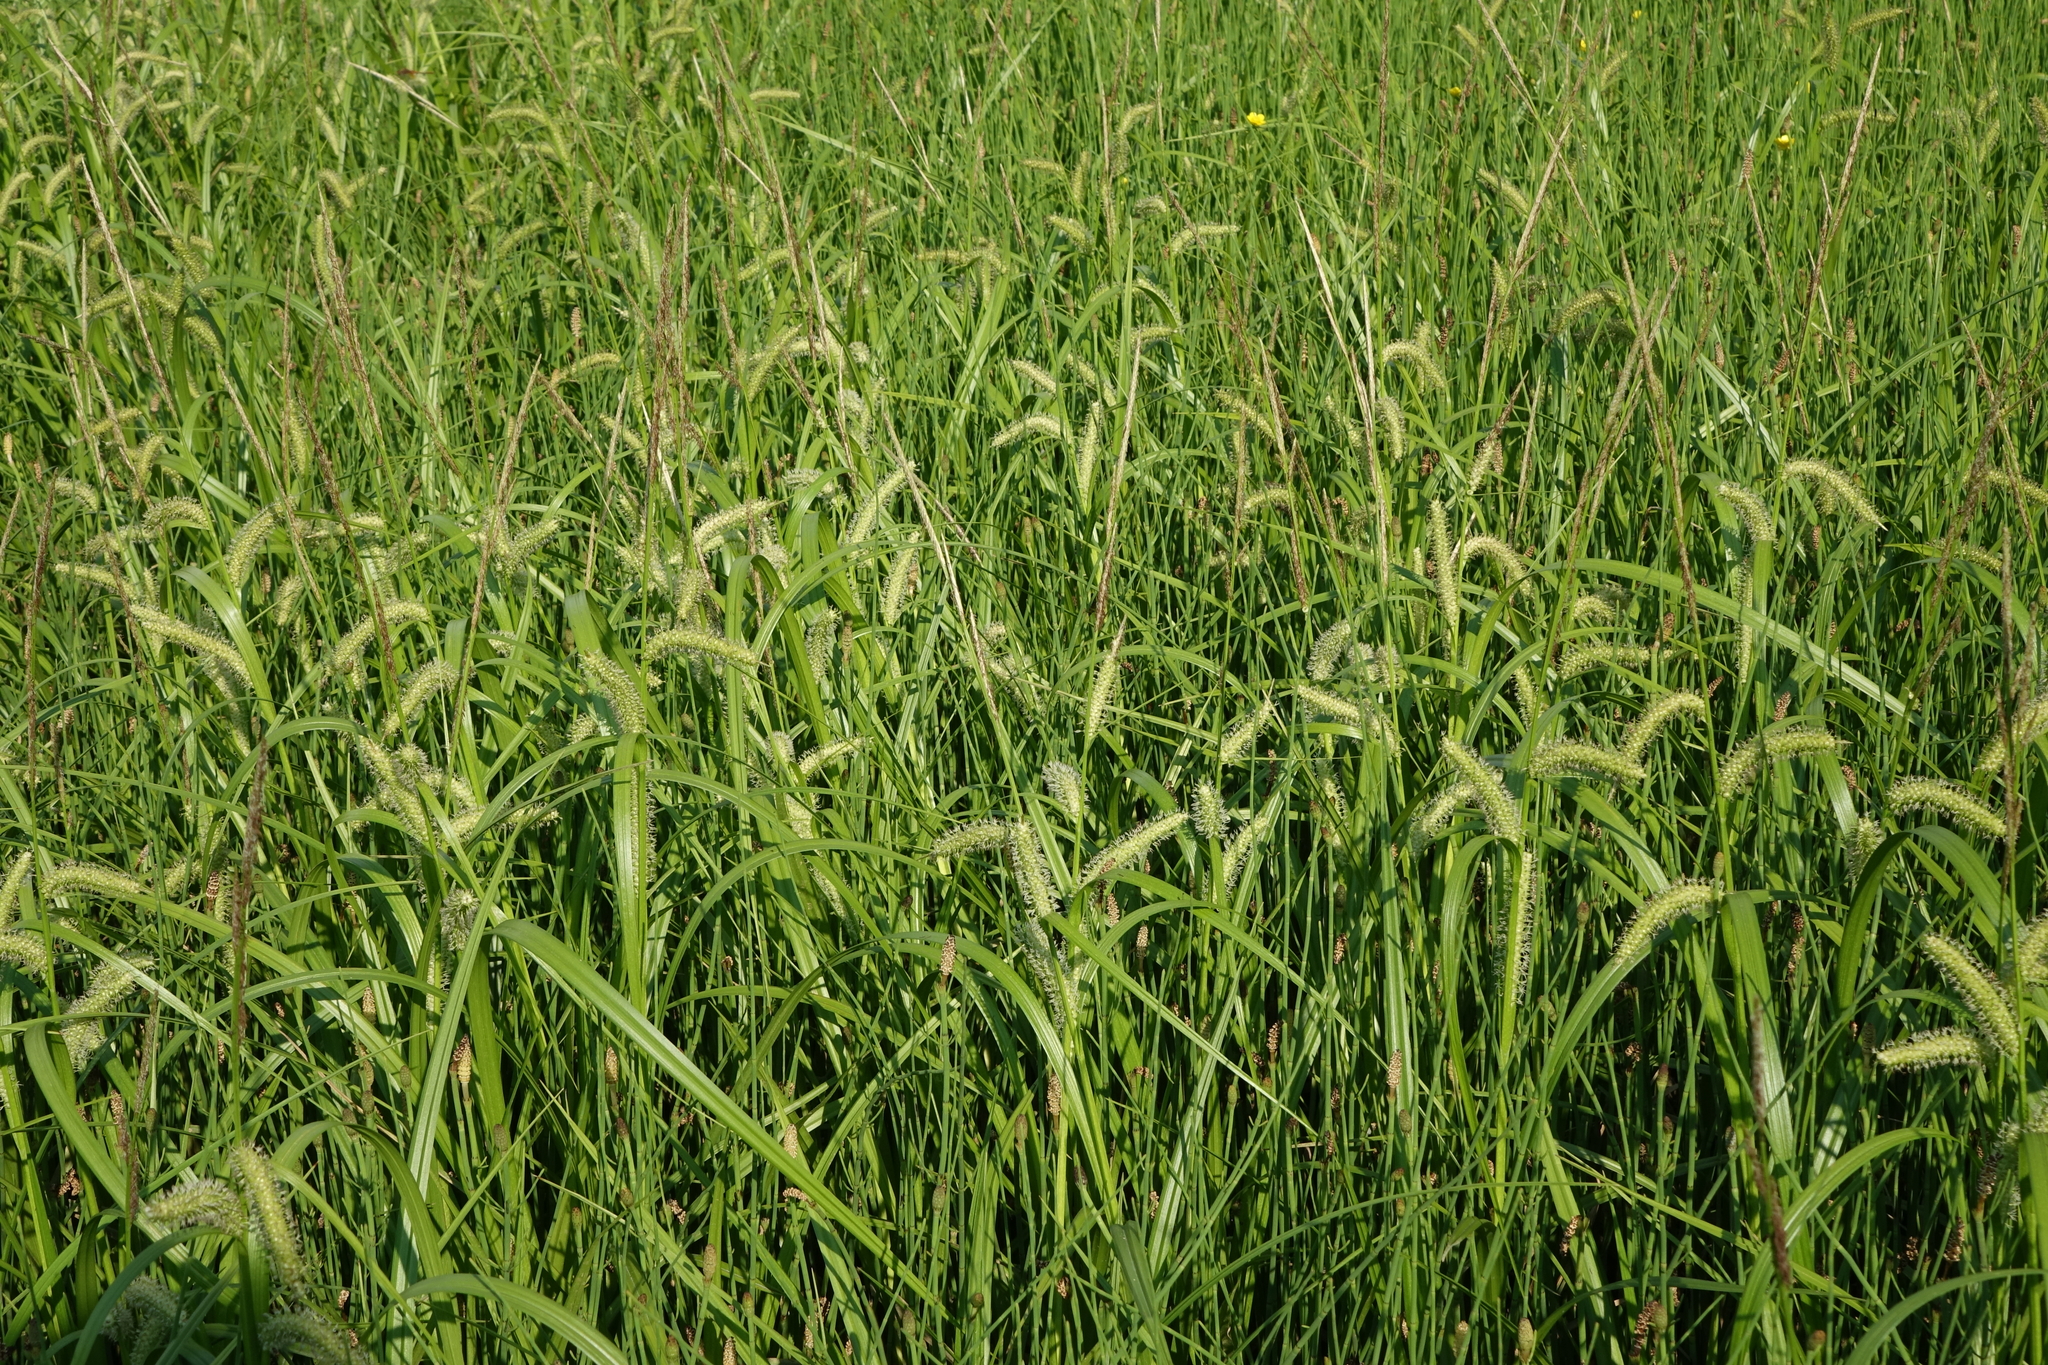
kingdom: Plantae
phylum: Tracheophyta
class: Liliopsida
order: Poales
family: Cyperaceae
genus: Carex
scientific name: Carex utriculata
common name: Beaked sedge
